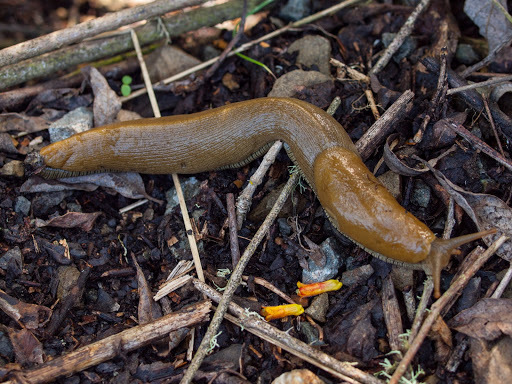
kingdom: Animalia
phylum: Mollusca
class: Gastropoda
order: Stylommatophora
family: Ariolimacidae
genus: Ariolimax
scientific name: Ariolimax buttoni
